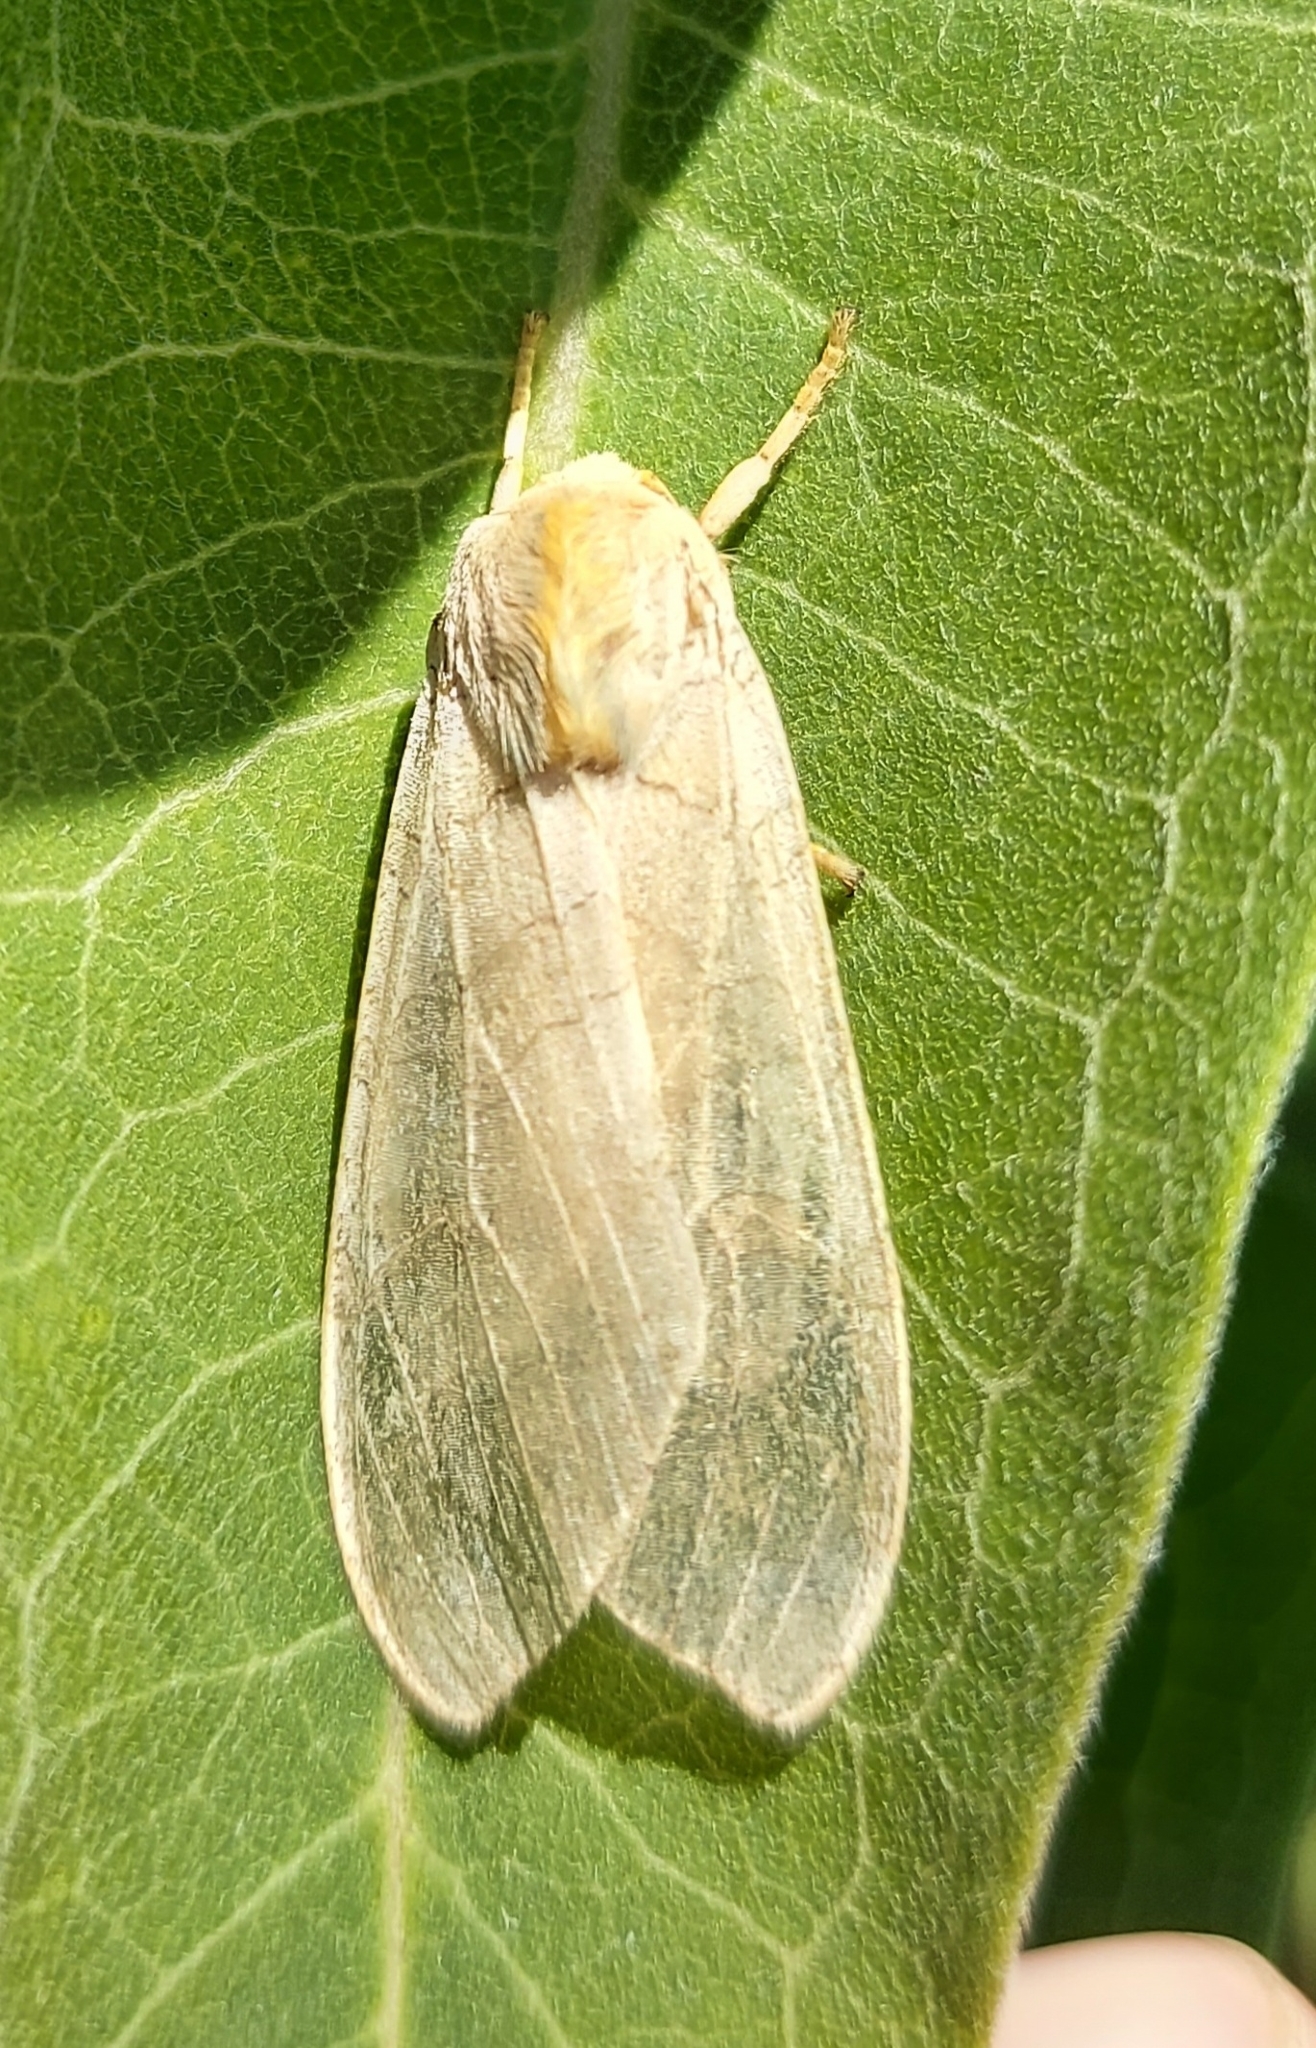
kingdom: Animalia
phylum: Arthropoda
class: Insecta
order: Lepidoptera
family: Erebidae
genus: Halysidota
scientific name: Halysidota tessellaris
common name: Banded tussock moth
